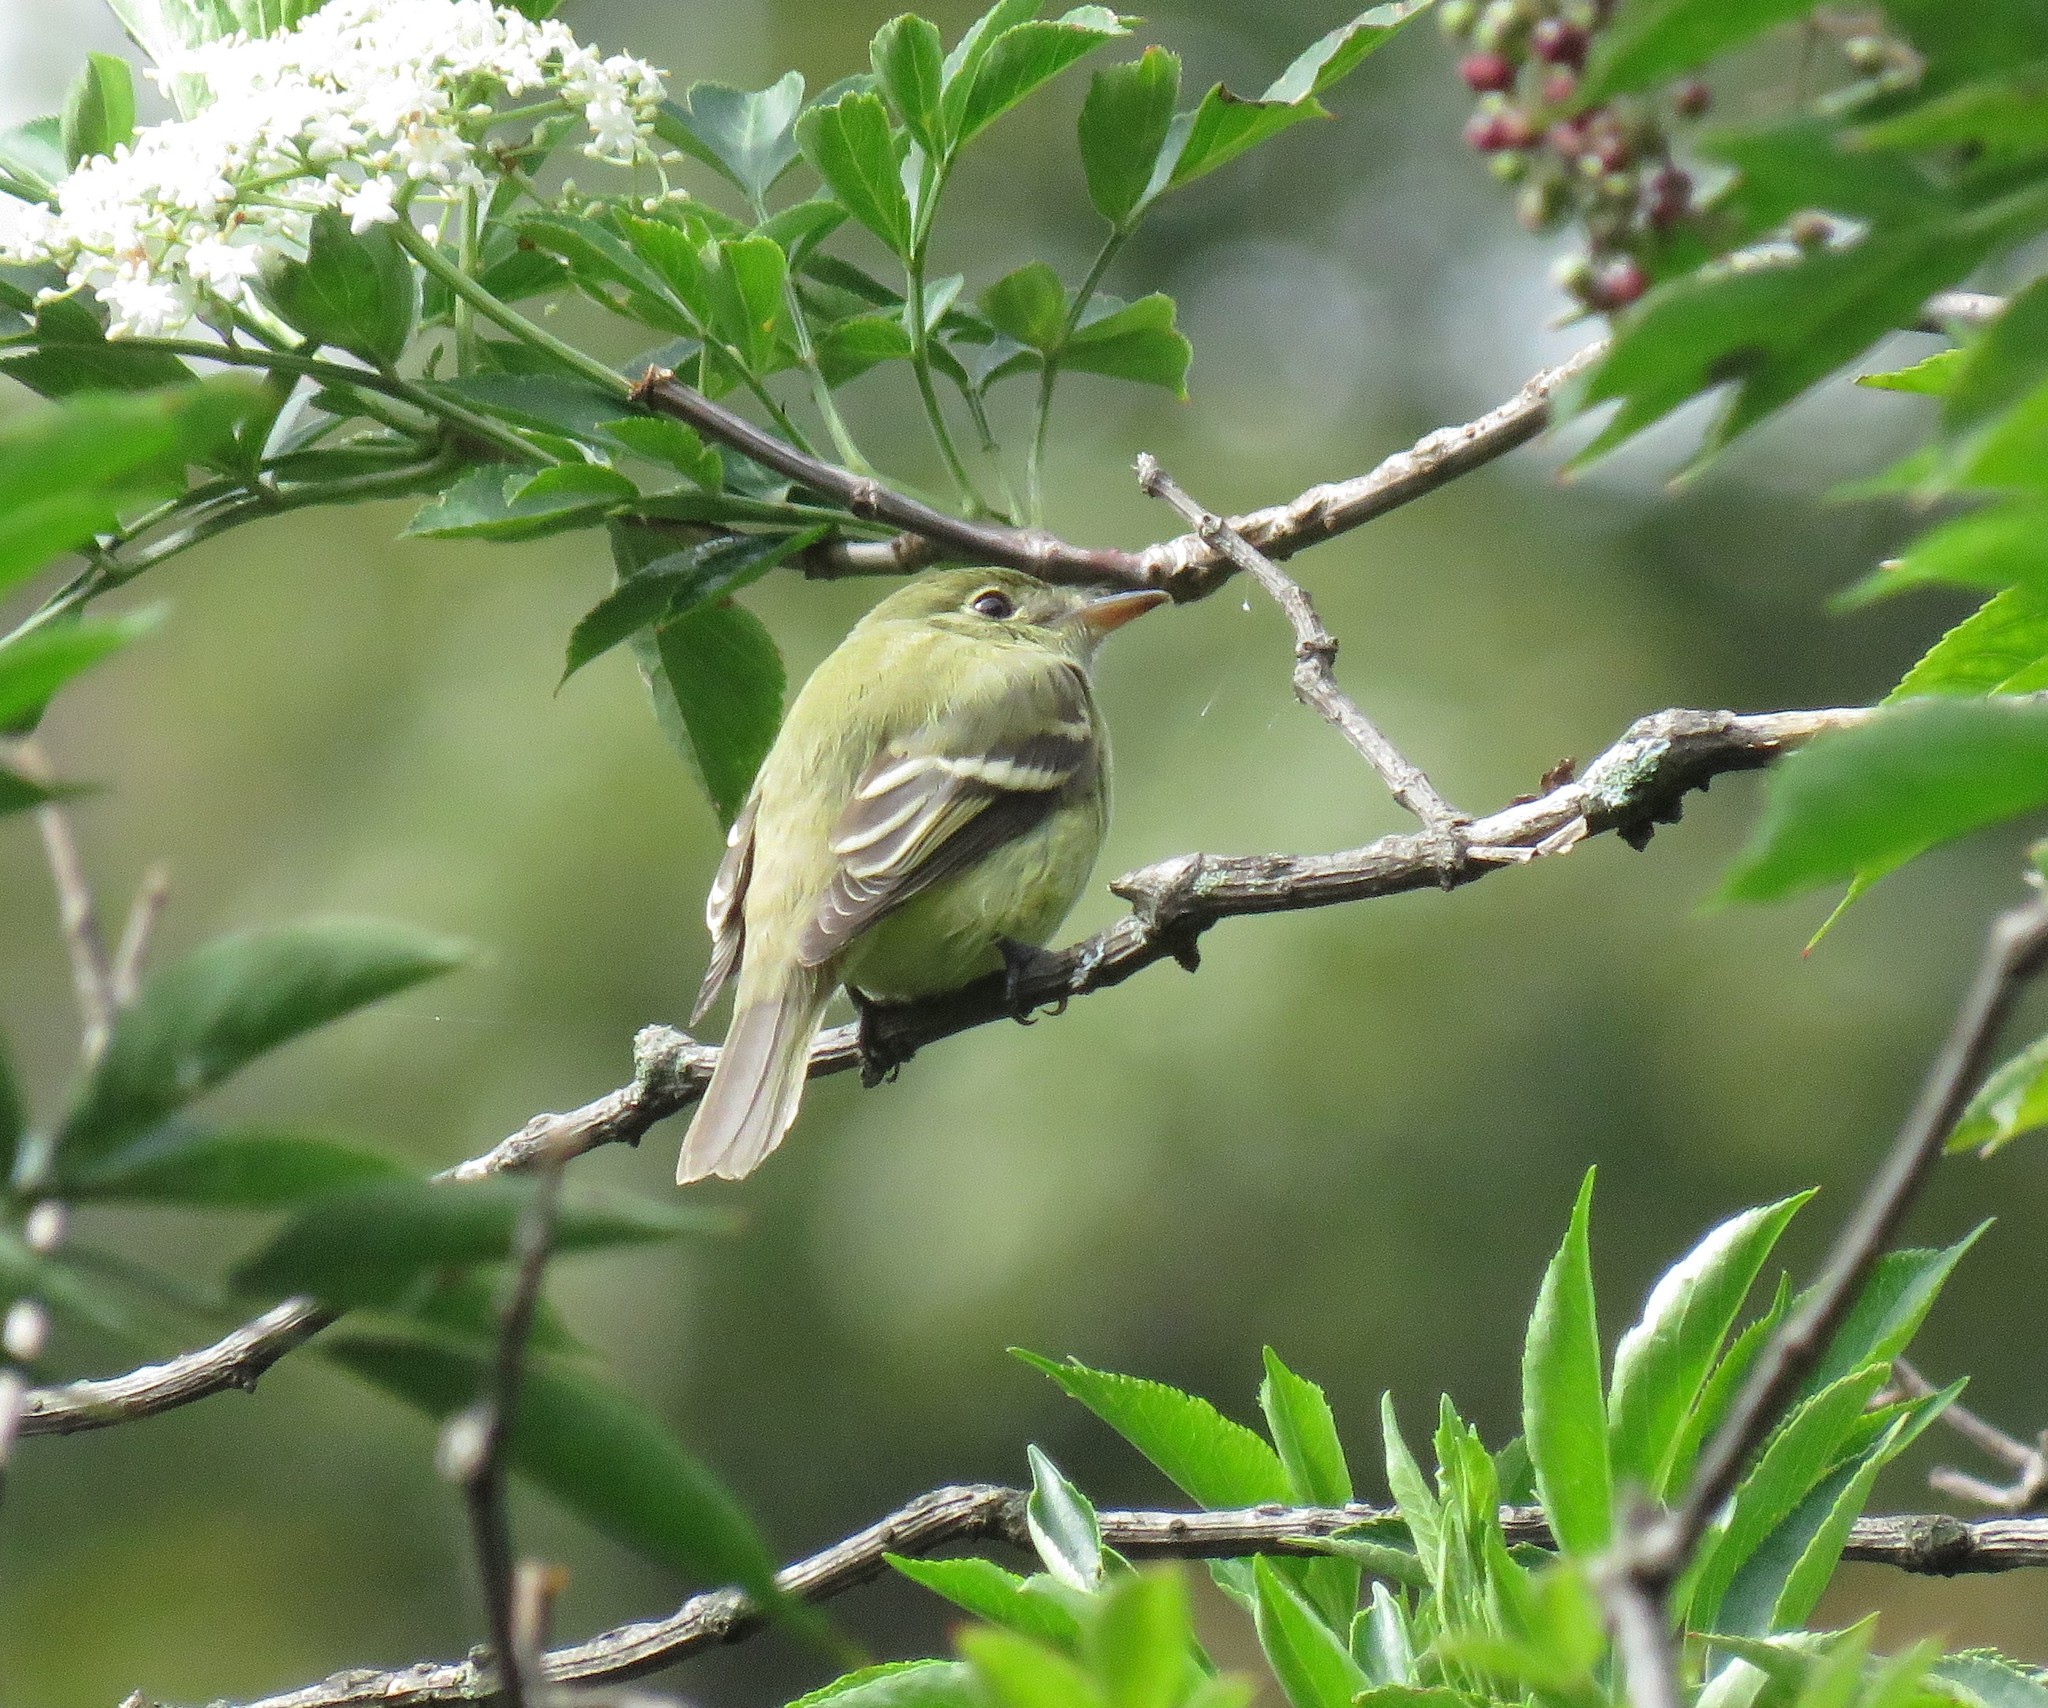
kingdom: Animalia
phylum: Chordata
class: Aves
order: Passeriformes
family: Tyrannidae
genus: Empidonax
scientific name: Empidonax virescens
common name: Acadian flycatcher
